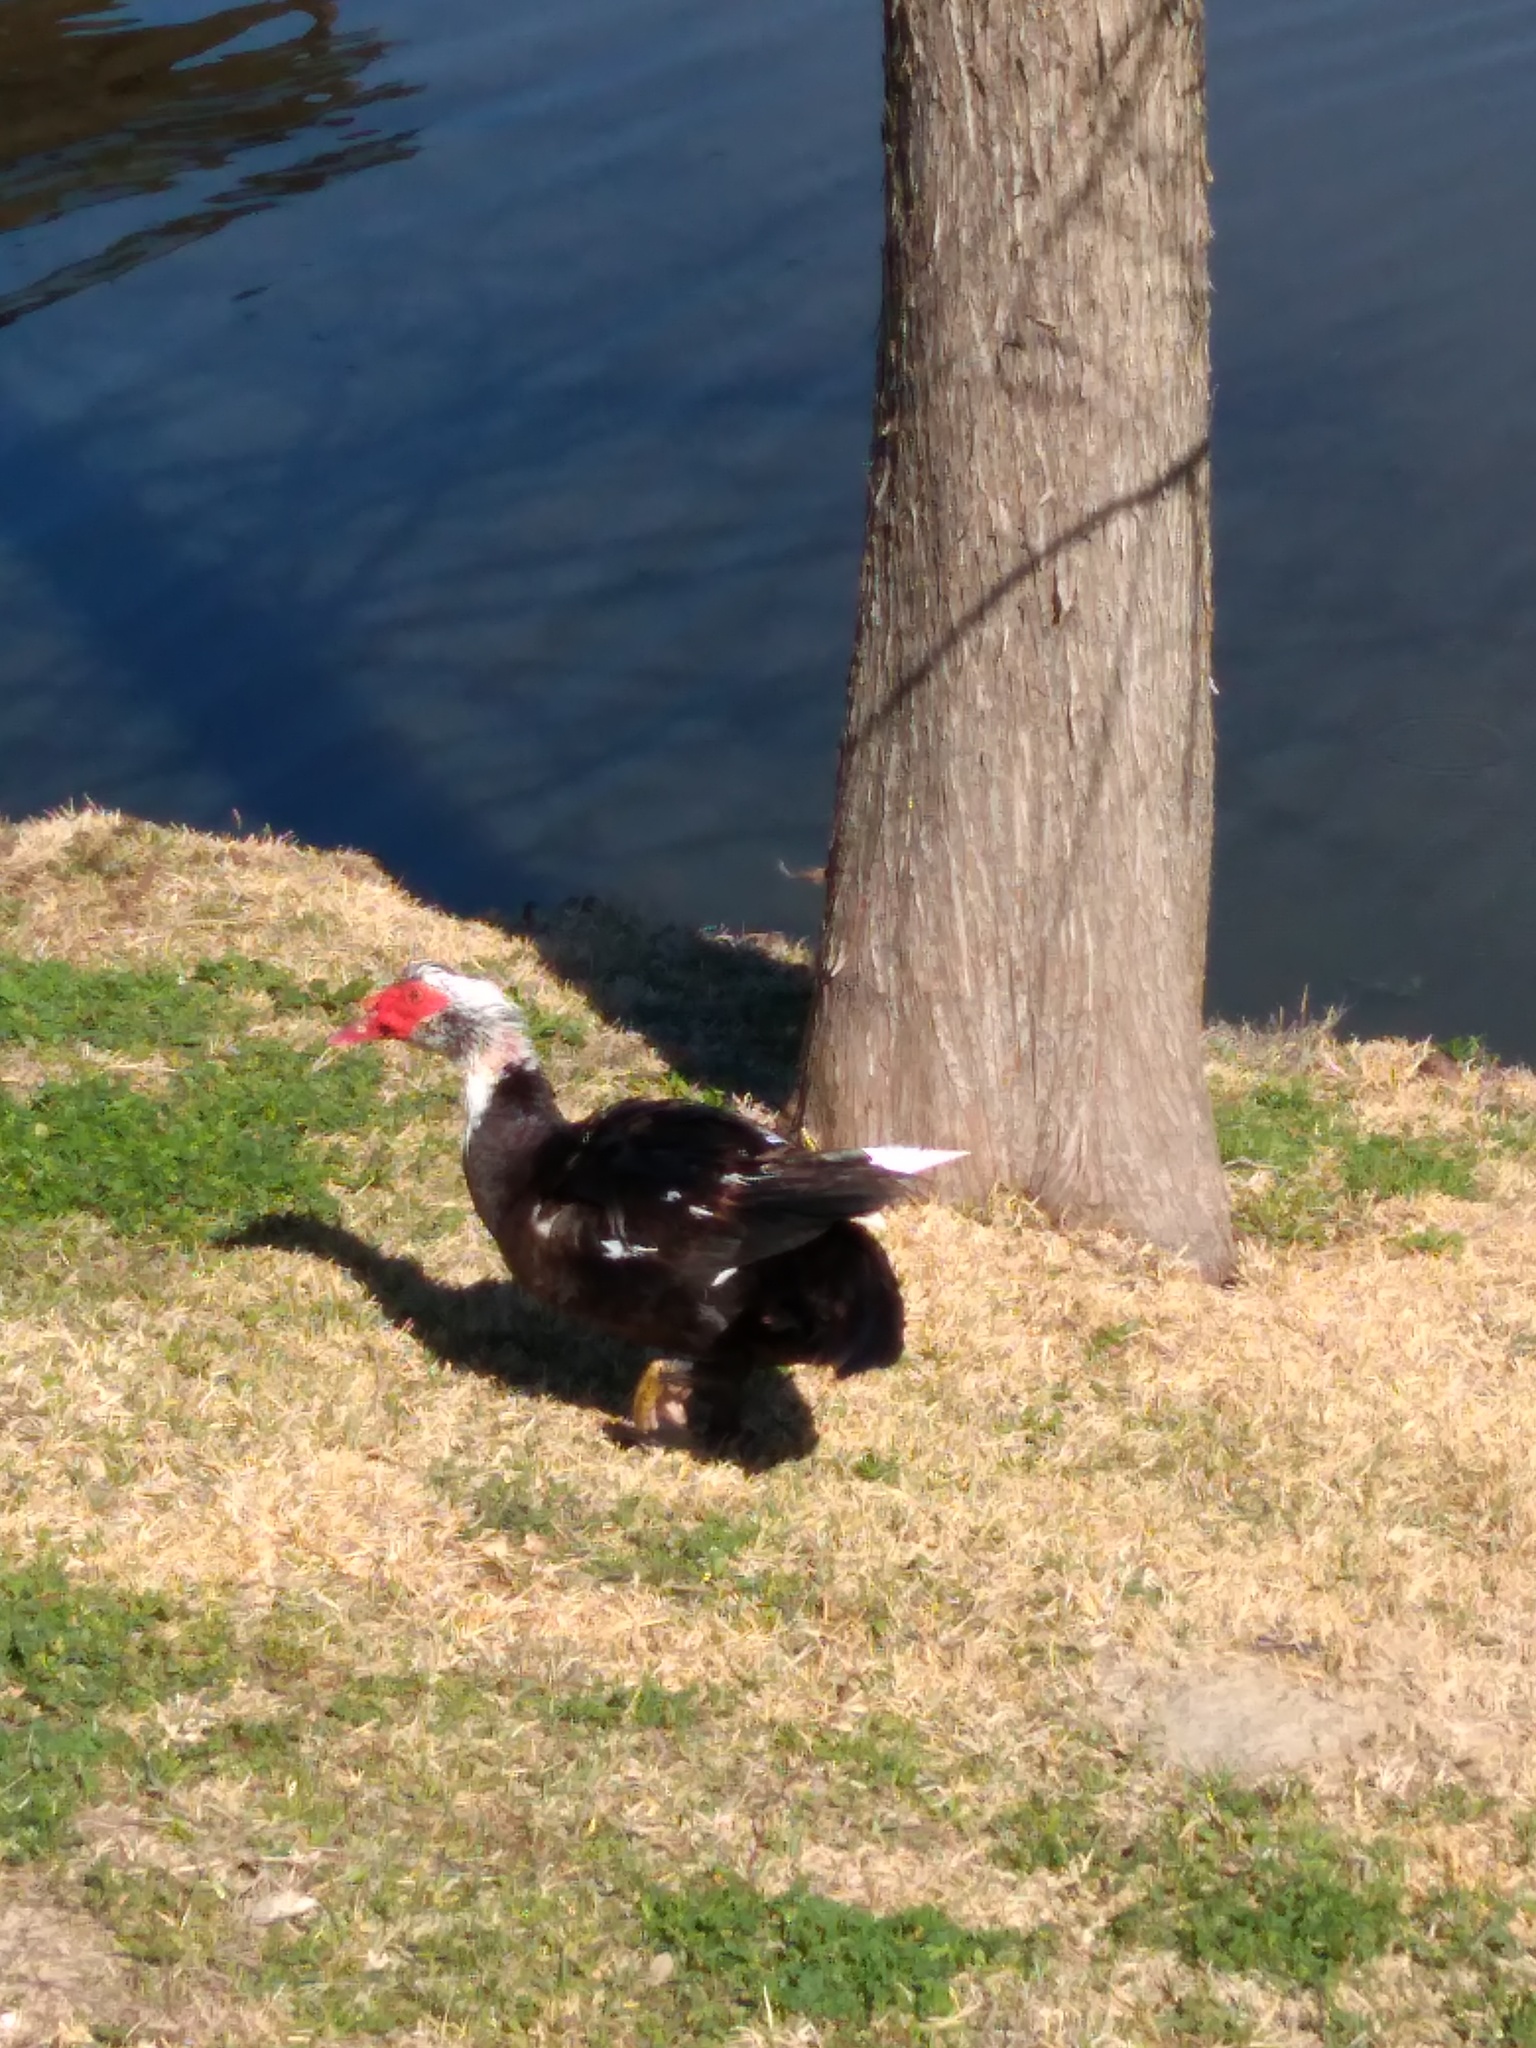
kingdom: Animalia
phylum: Chordata
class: Aves
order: Anseriformes
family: Anatidae
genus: Cairina
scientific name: Cairina moschata
